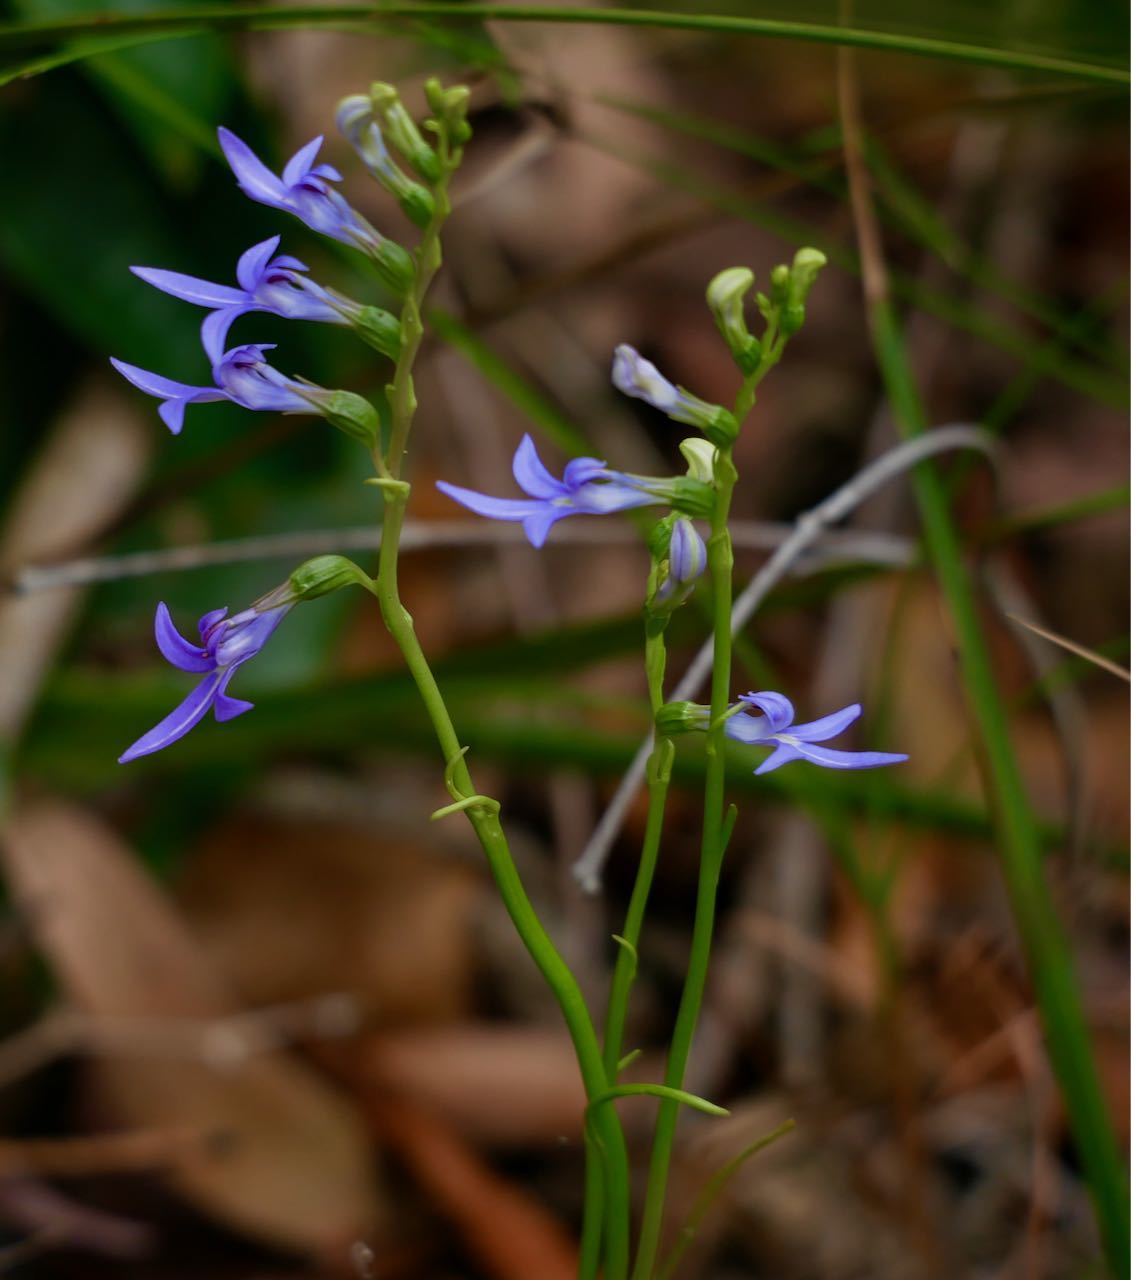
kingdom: Plantae
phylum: Tracheophyta
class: Magnoliopsida
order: Asterales
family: Campanulaceae
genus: Lobelia
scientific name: Lobelia gibbosa
